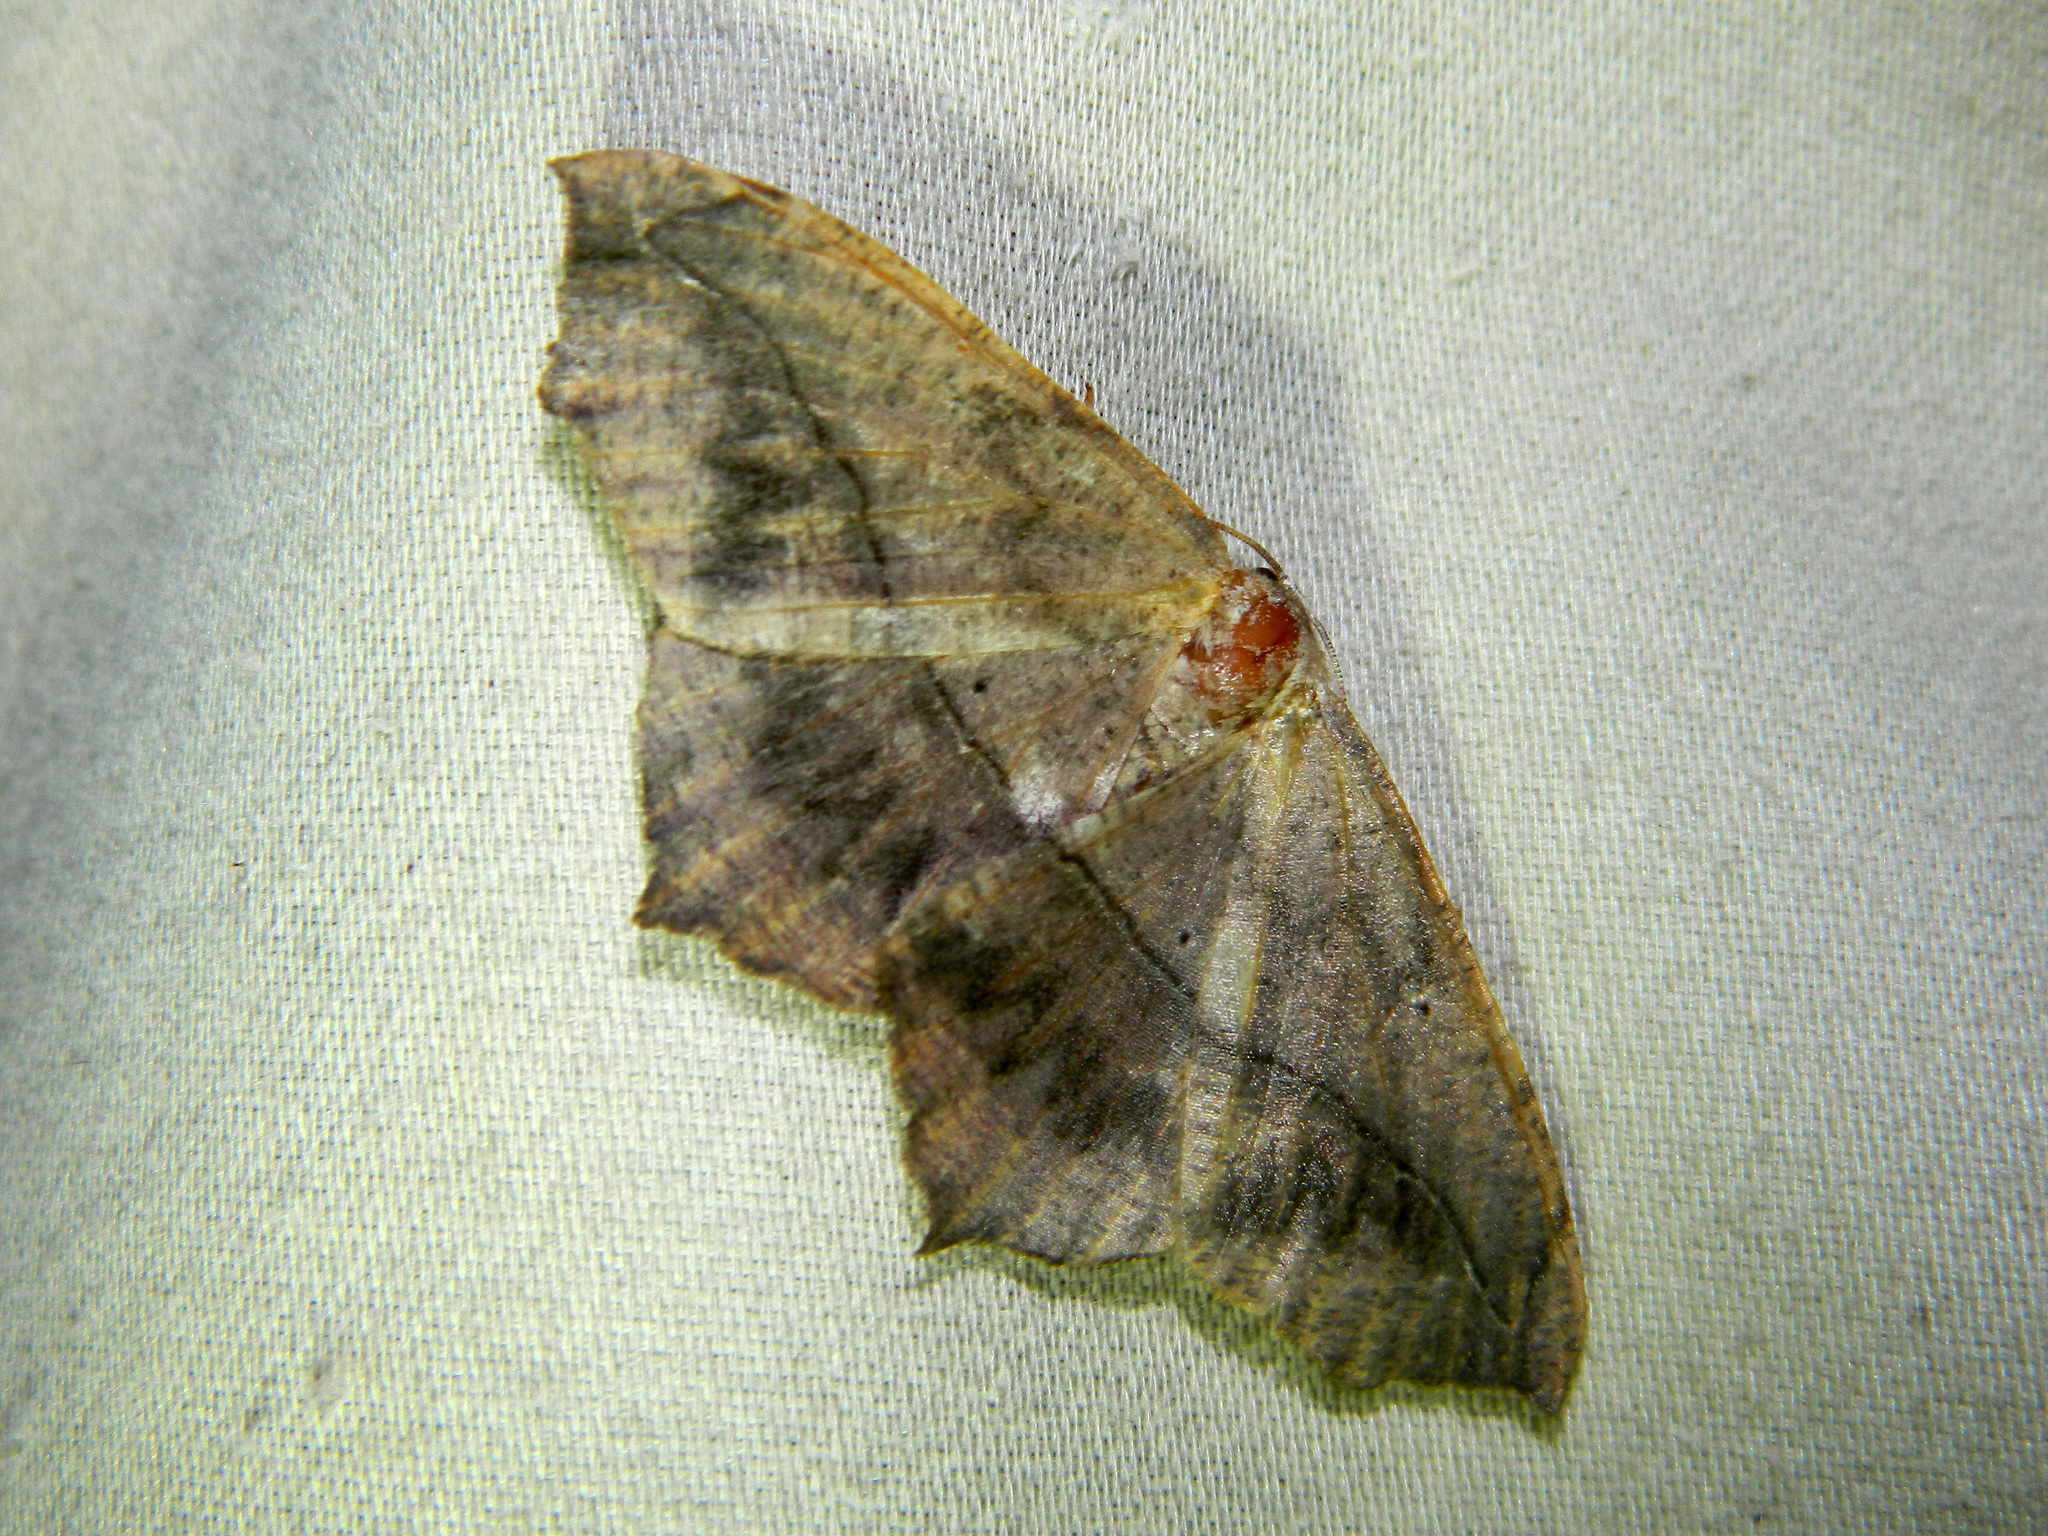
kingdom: Animalia
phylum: Arthropoda
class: Insecta
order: Lepidoptera
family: Geometridae
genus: Prochoerodes
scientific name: Prochoerodes lineola
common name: Large maple spanworm
